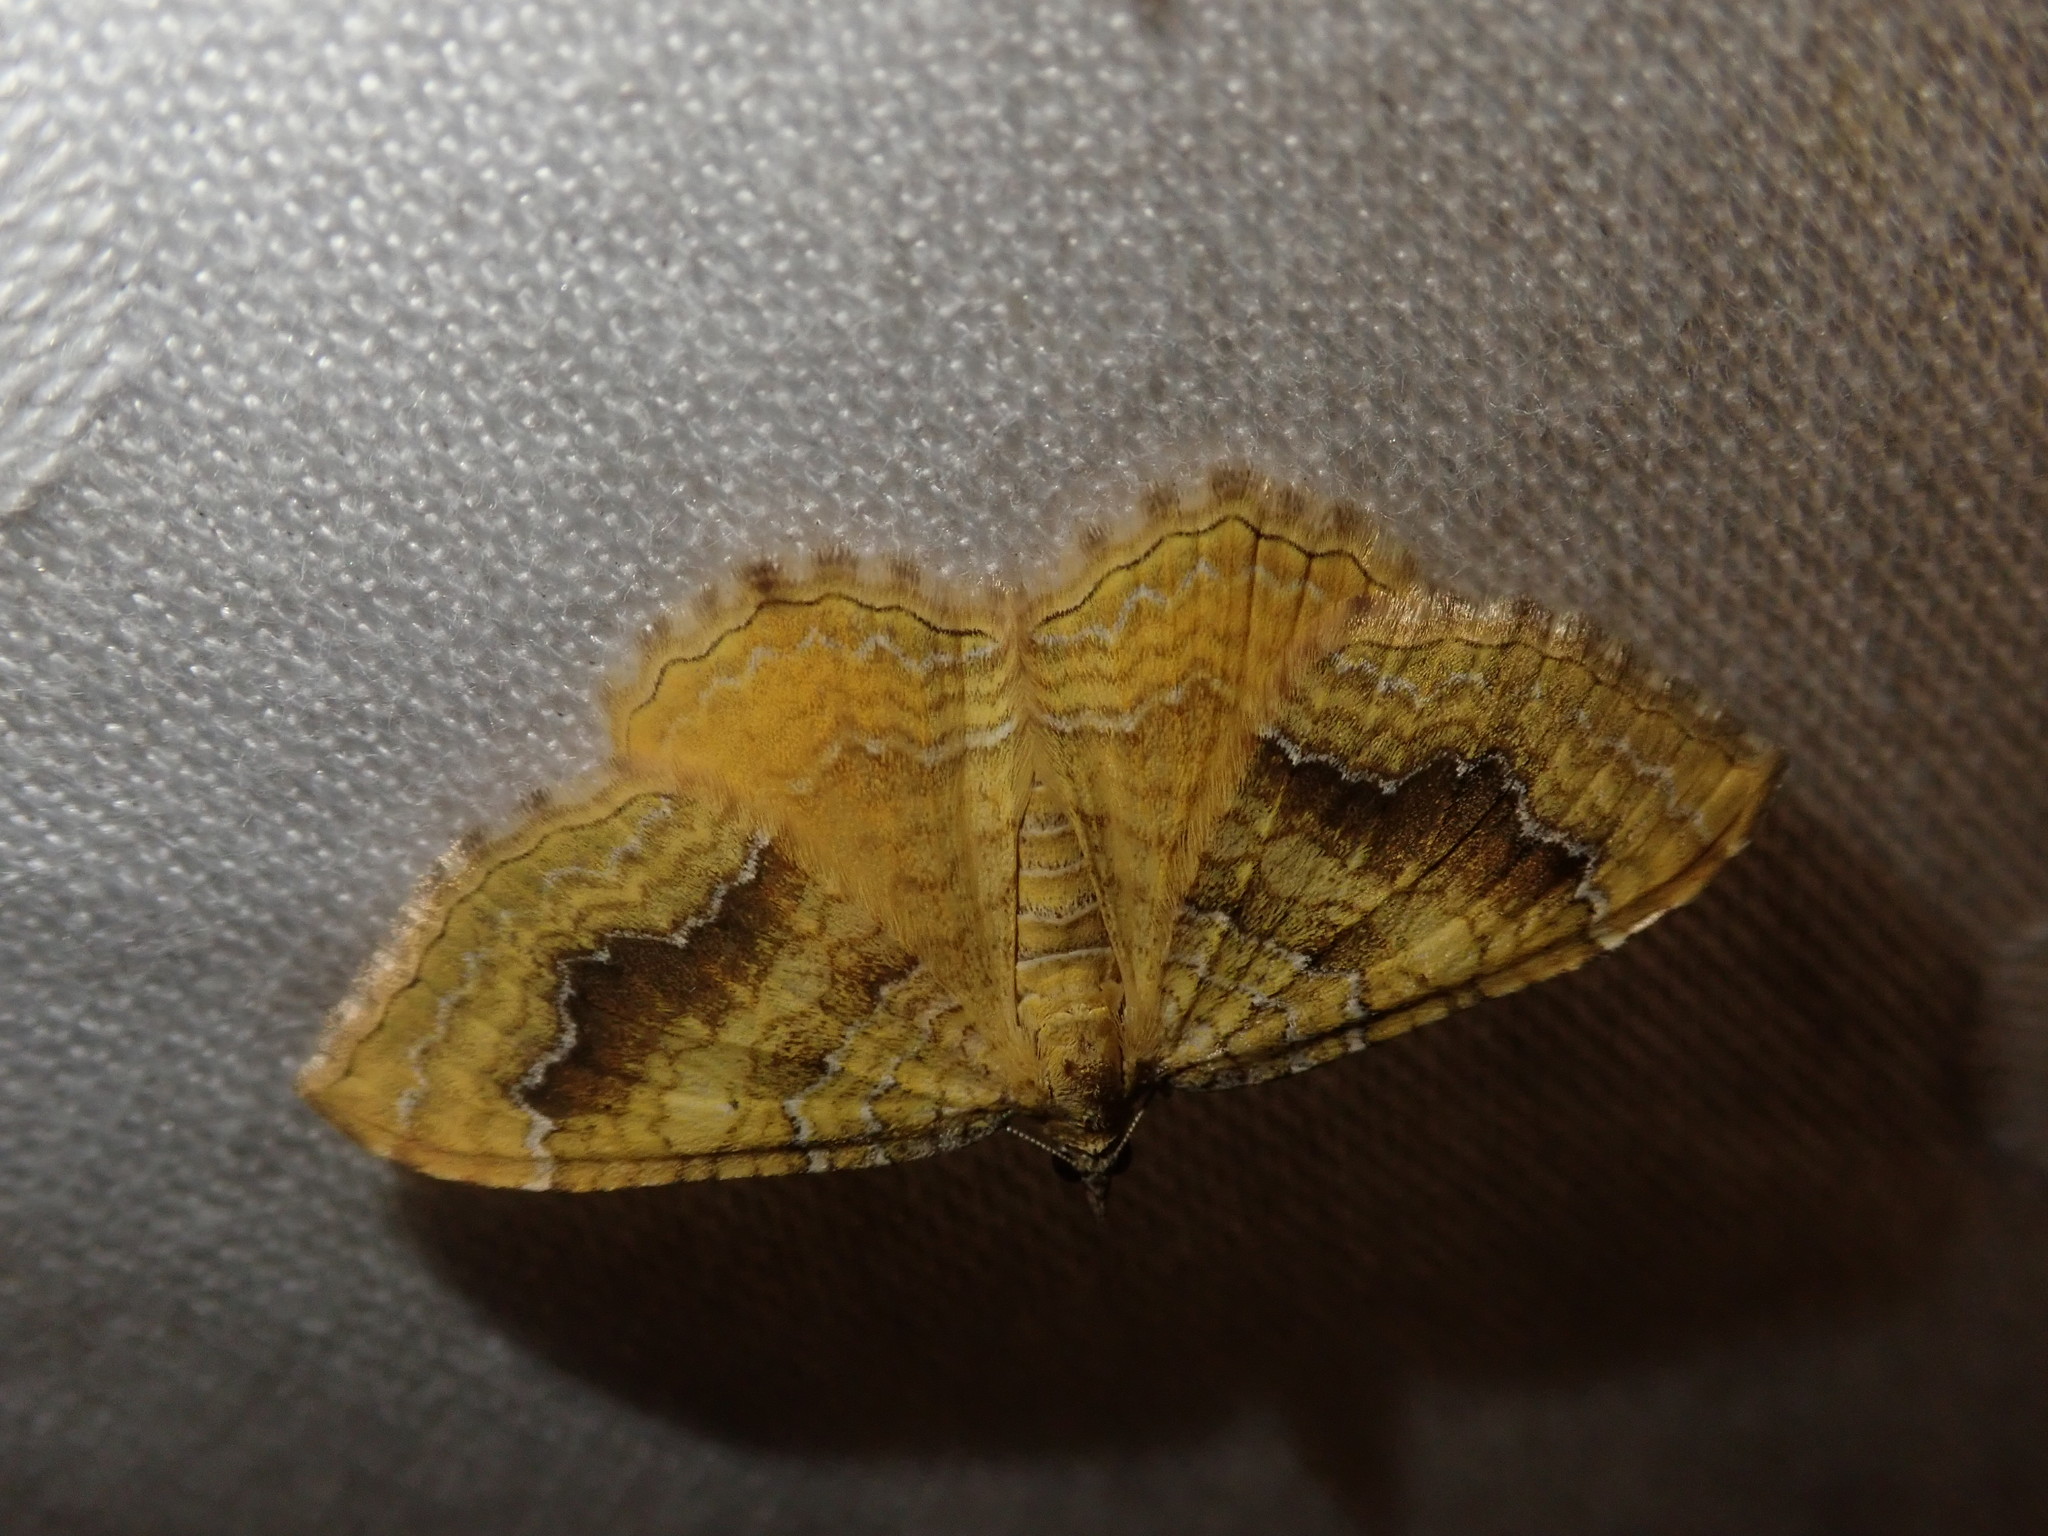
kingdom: Animalia
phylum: Arthropoda
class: Insecta
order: Lepidoptera
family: Geometridae
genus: Camptogramma
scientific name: Camptogramma bilineata
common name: Yellow shell
